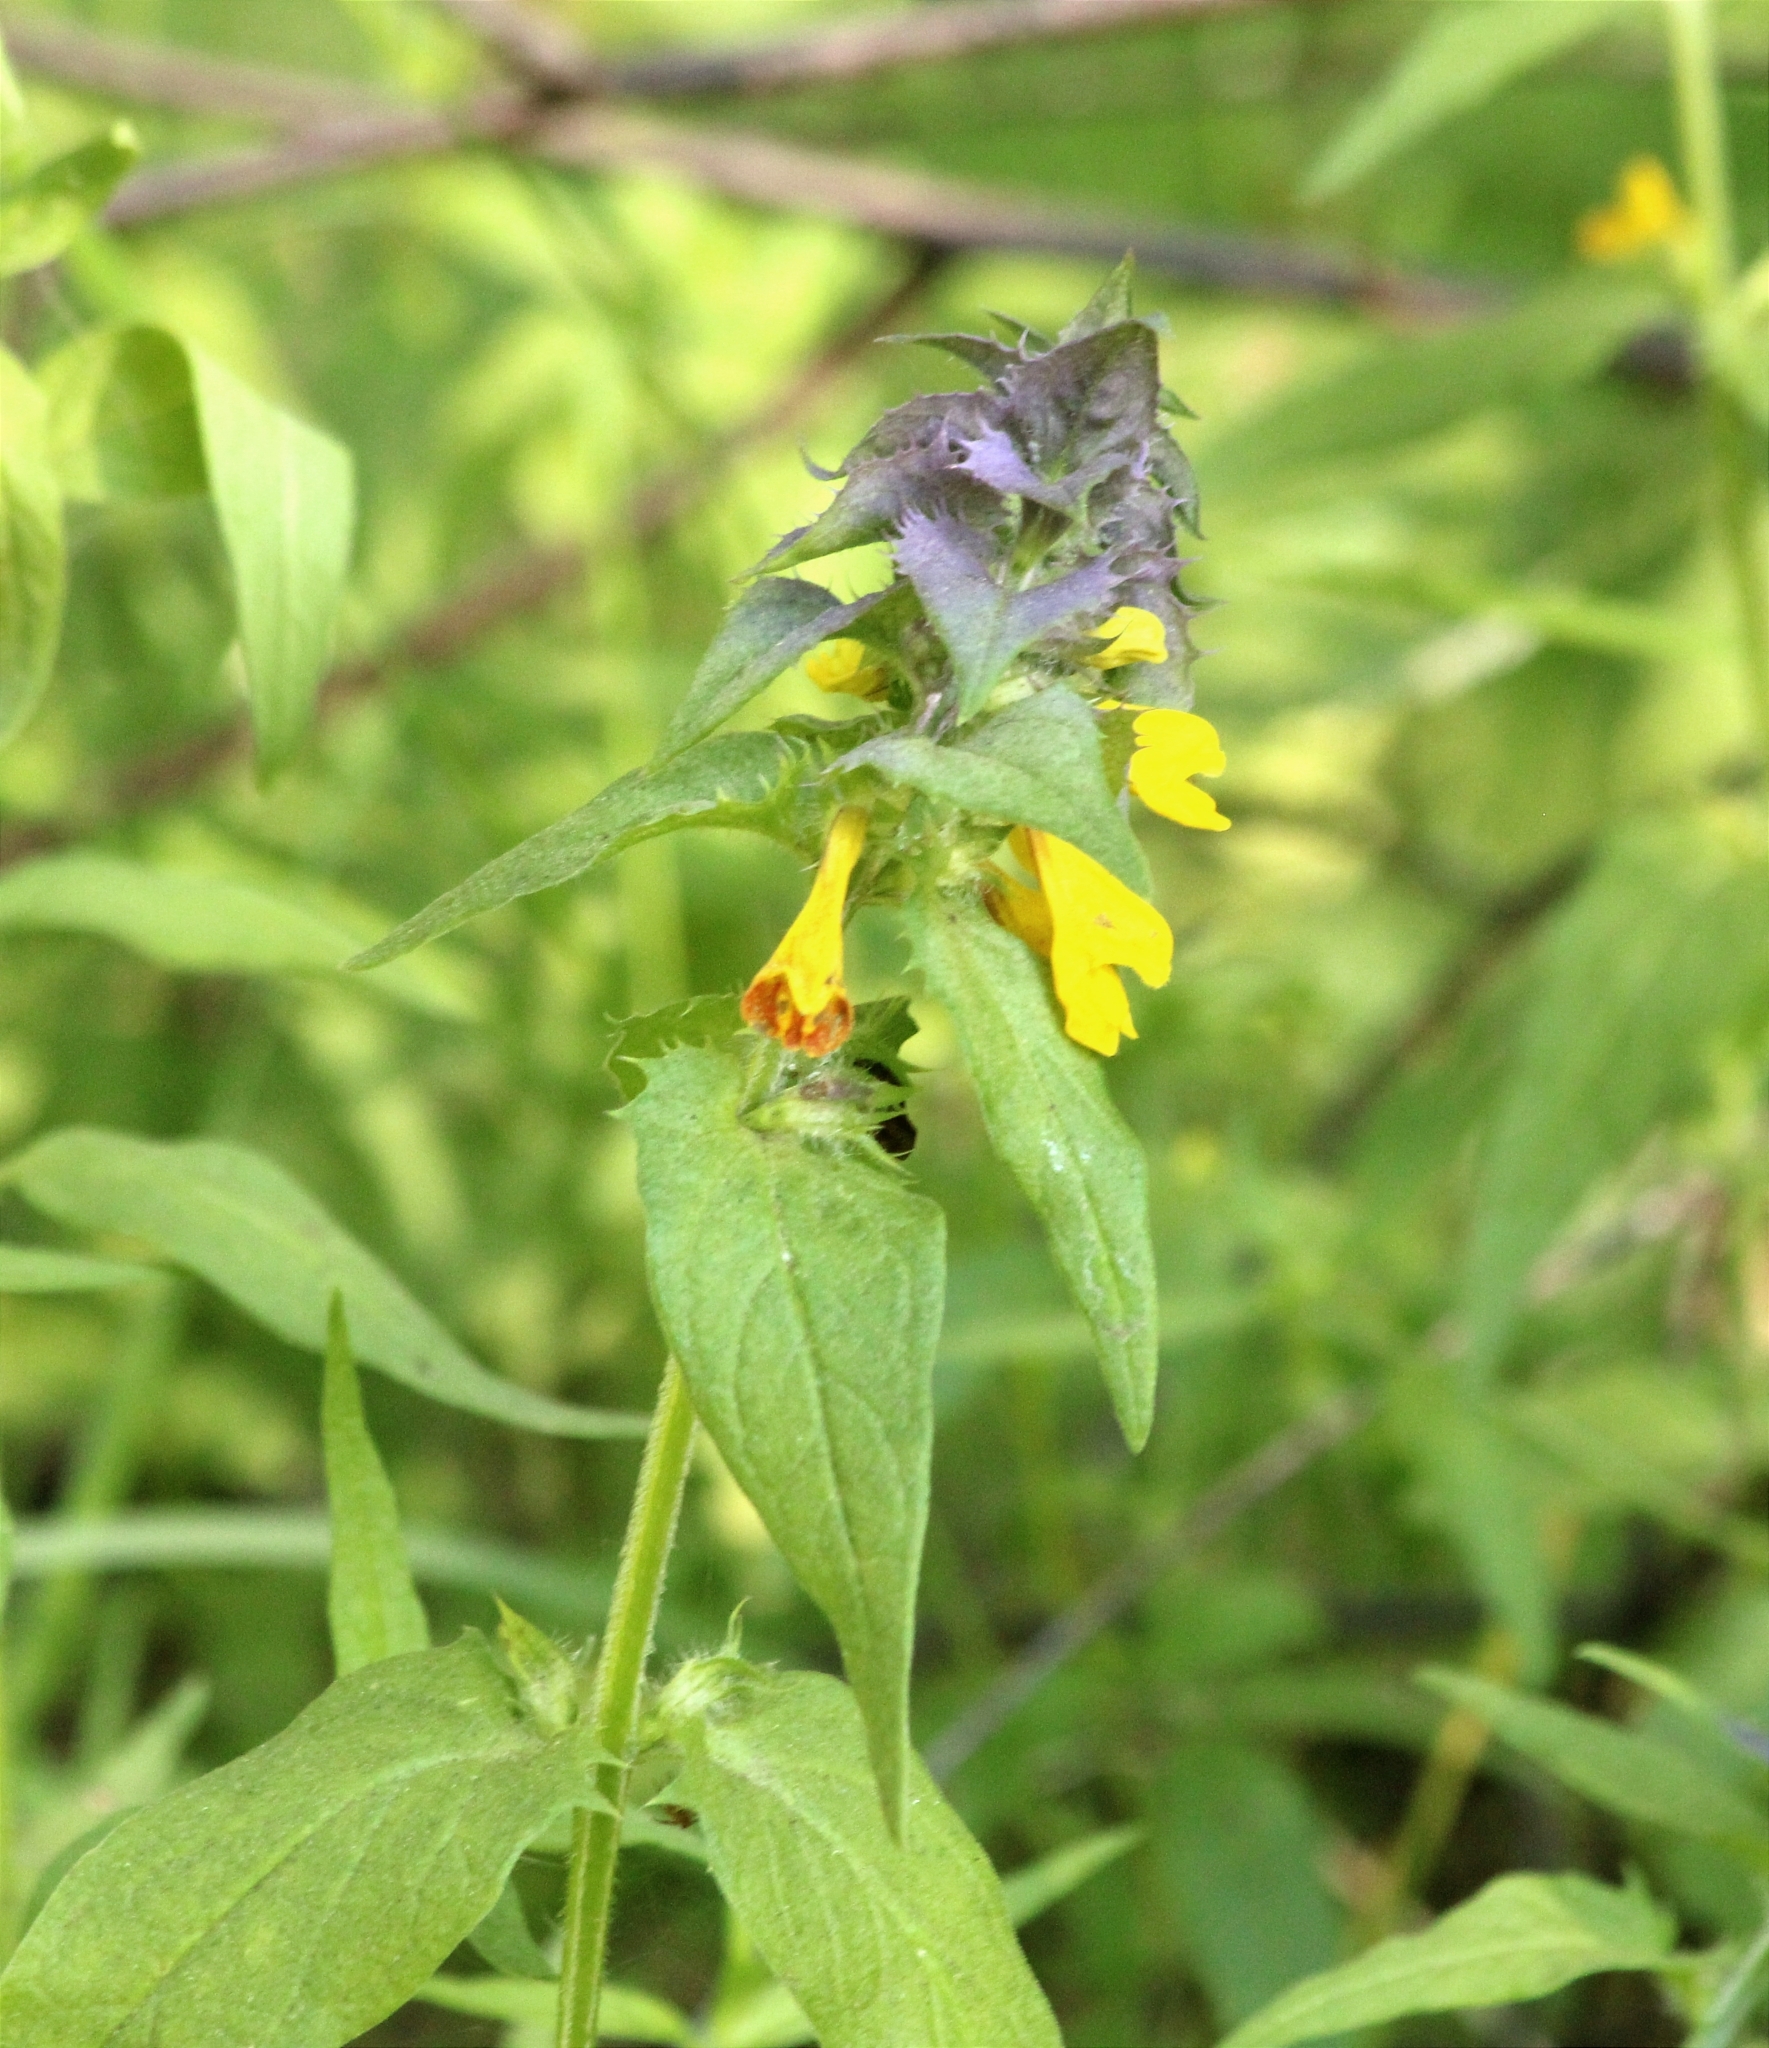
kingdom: Plantae
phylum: Tracheophyta
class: Magnoliopsida
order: Lamiales
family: Orobanchaceae
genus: Melampyrum
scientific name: Melampyrum nemorosum
